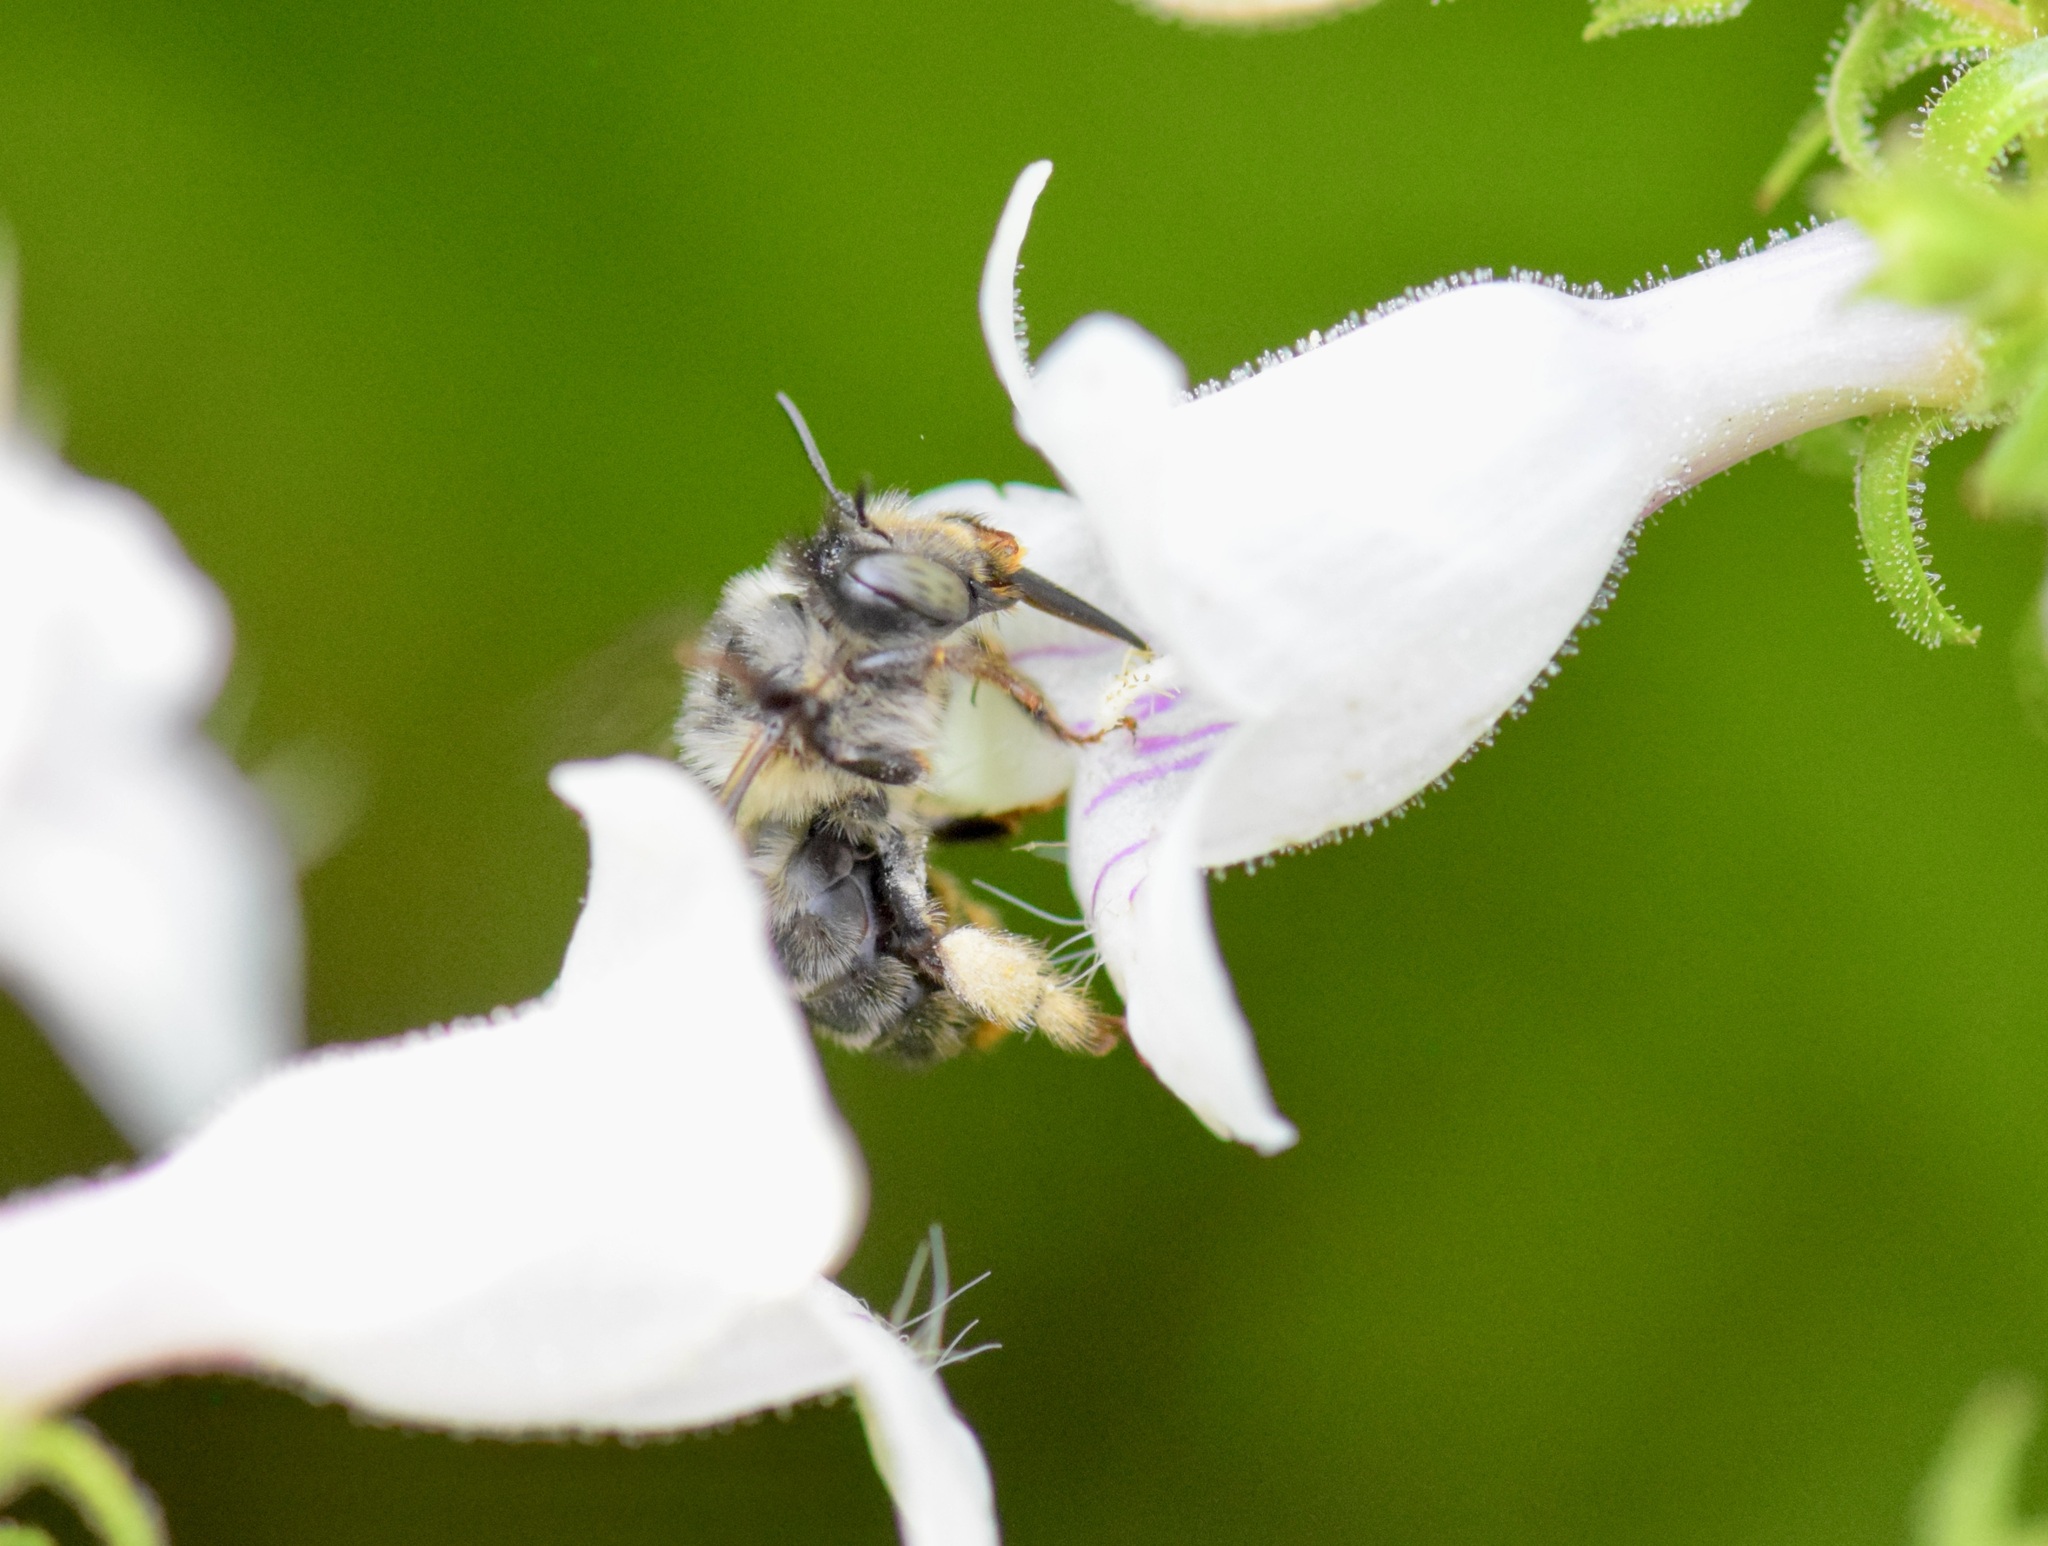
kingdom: Animalia
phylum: Arthropoda
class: Insecta
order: Hymenoptera
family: Apidae
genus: Anthophora
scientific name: Anthophora terminalis
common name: Orange-tipped wood-digger bee
